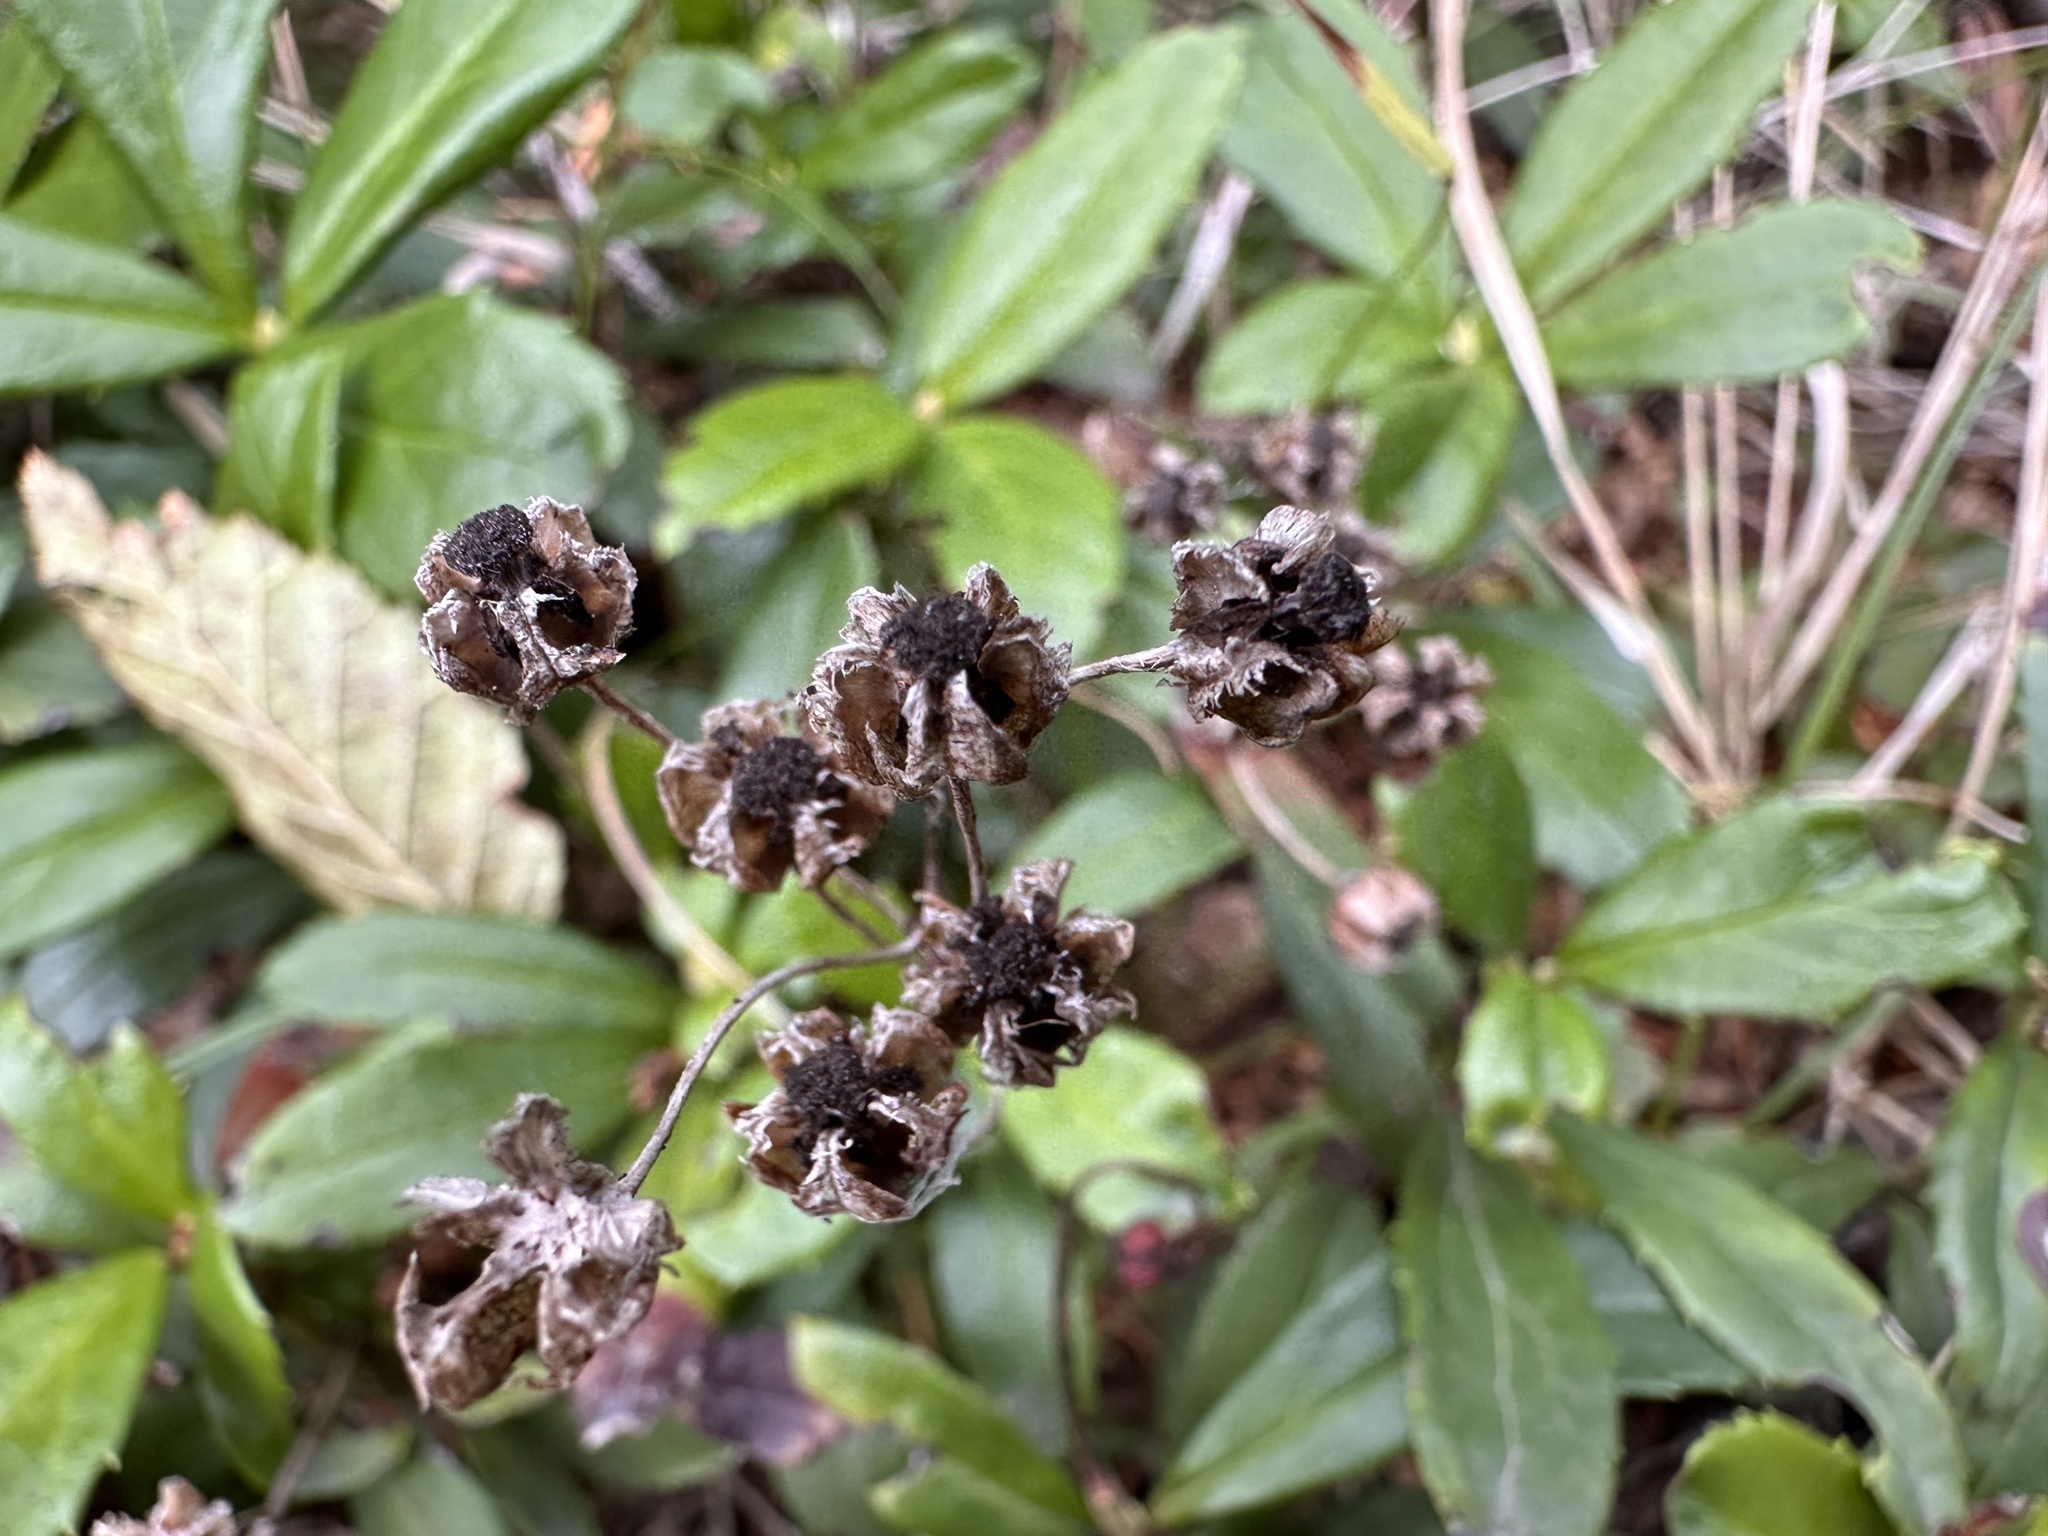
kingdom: Plantae
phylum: Tracheophyta
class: Magnoliopsida
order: Ericales
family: Ericaceae
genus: Chimaphila
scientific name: Chimaphila umbellata
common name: Pipsissewa
